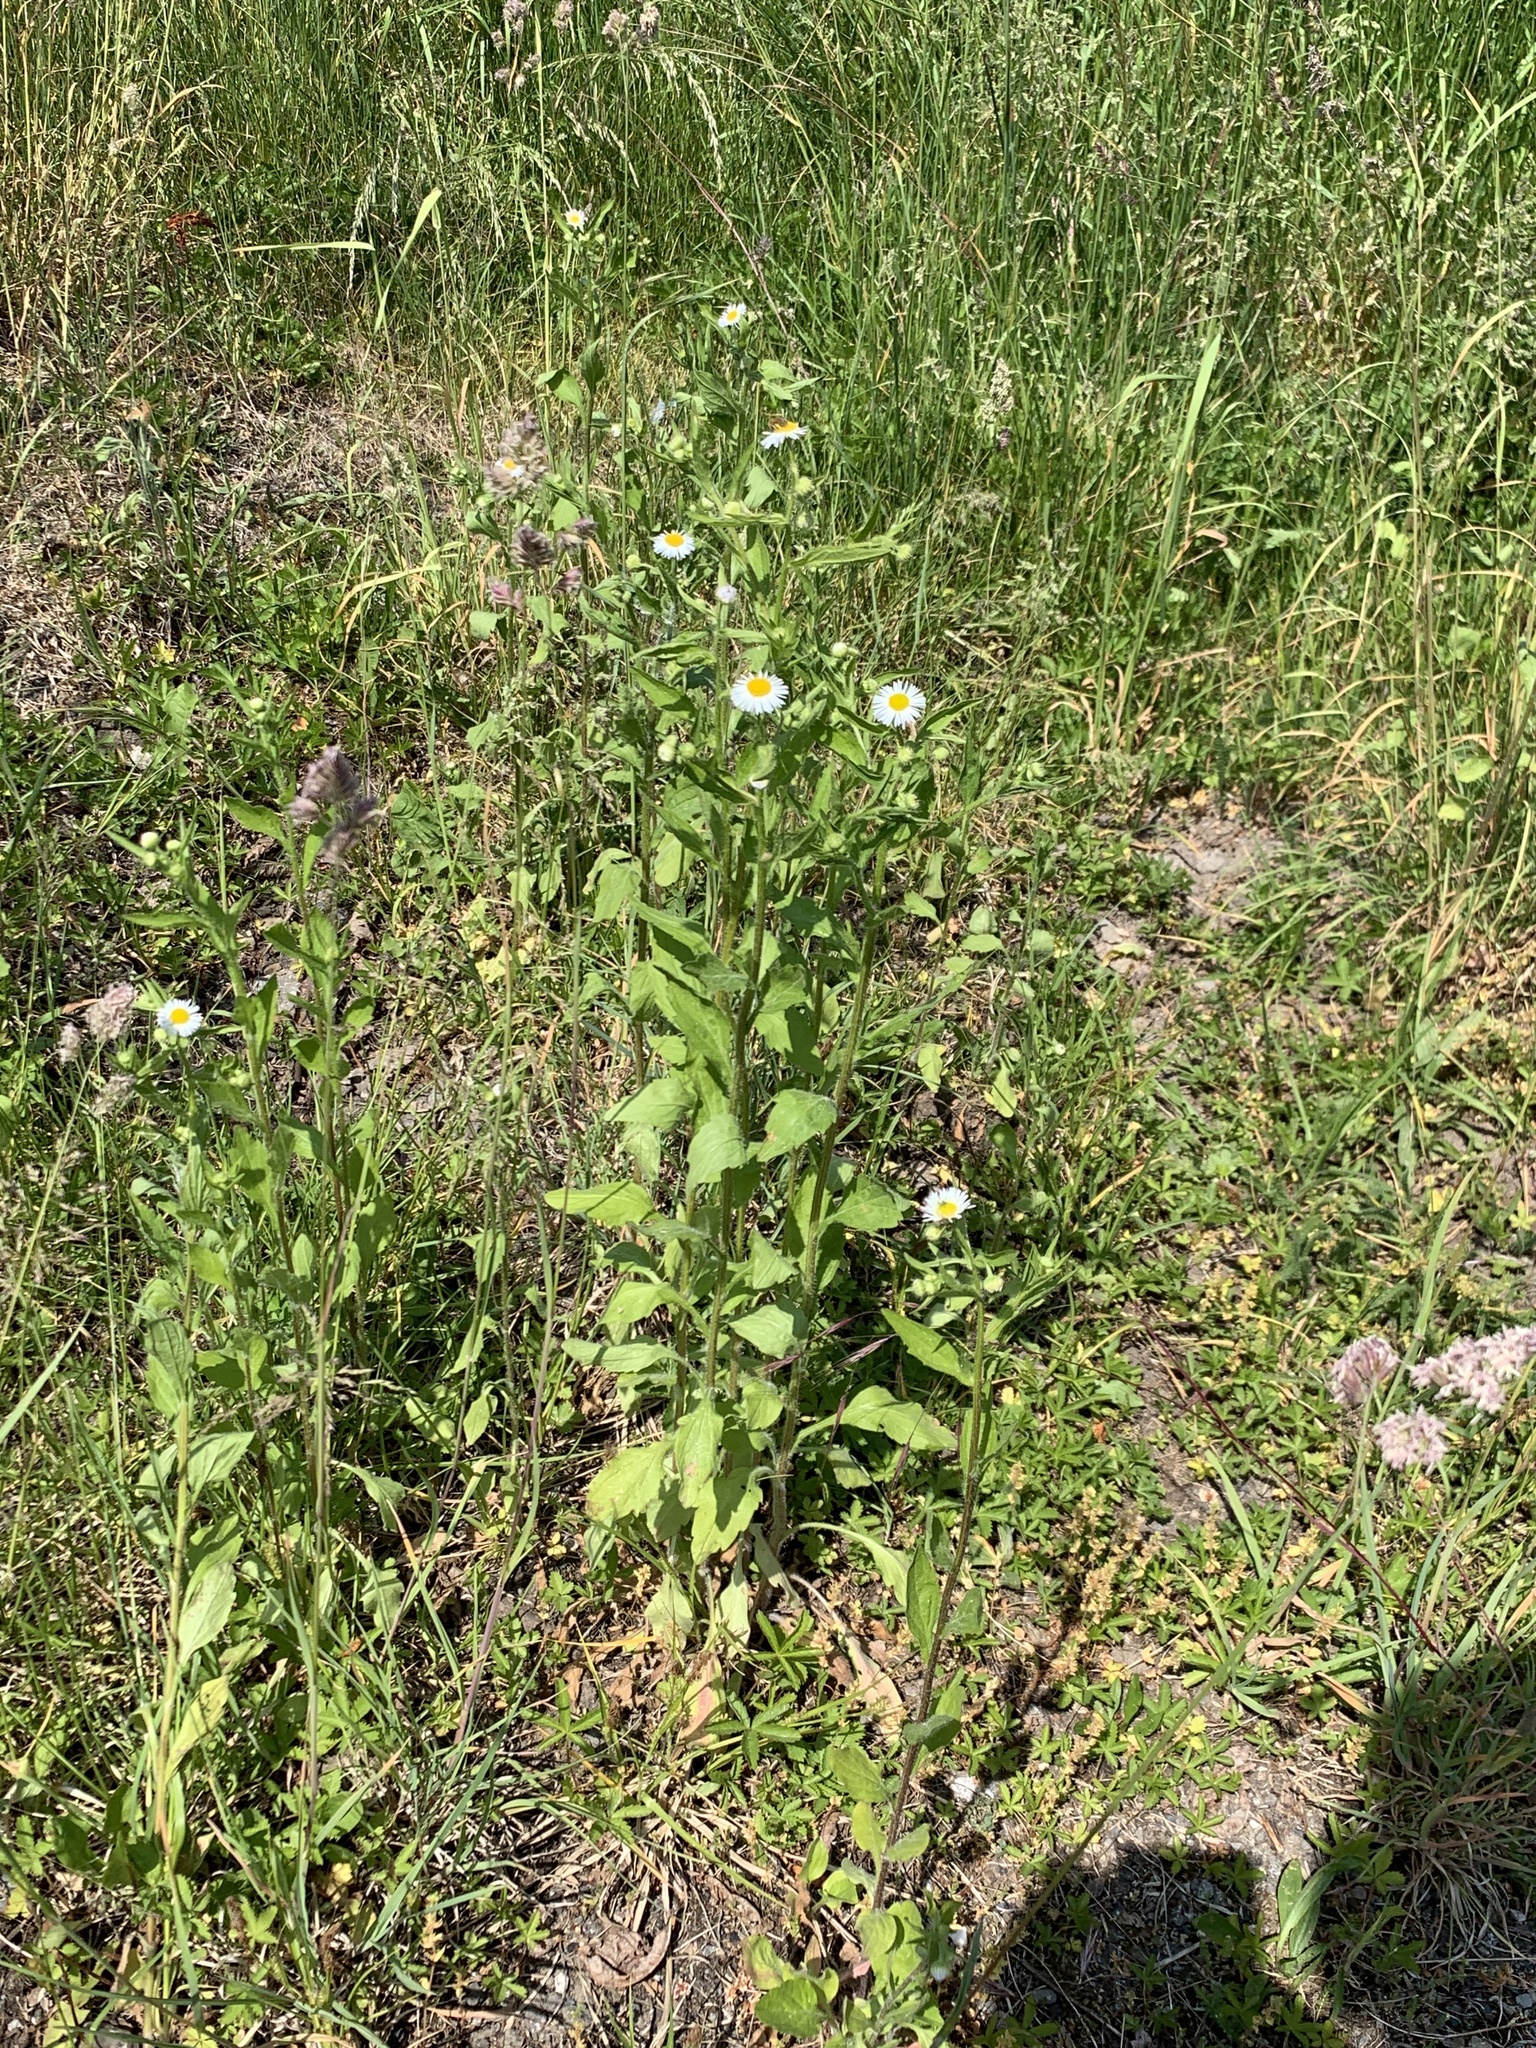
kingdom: Plantae
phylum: Tracheophyta
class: Magnoliopsida
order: Asterales
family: Asteraceae
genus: Erigeron
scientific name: Erigeron annuus
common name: Tall fleabane
